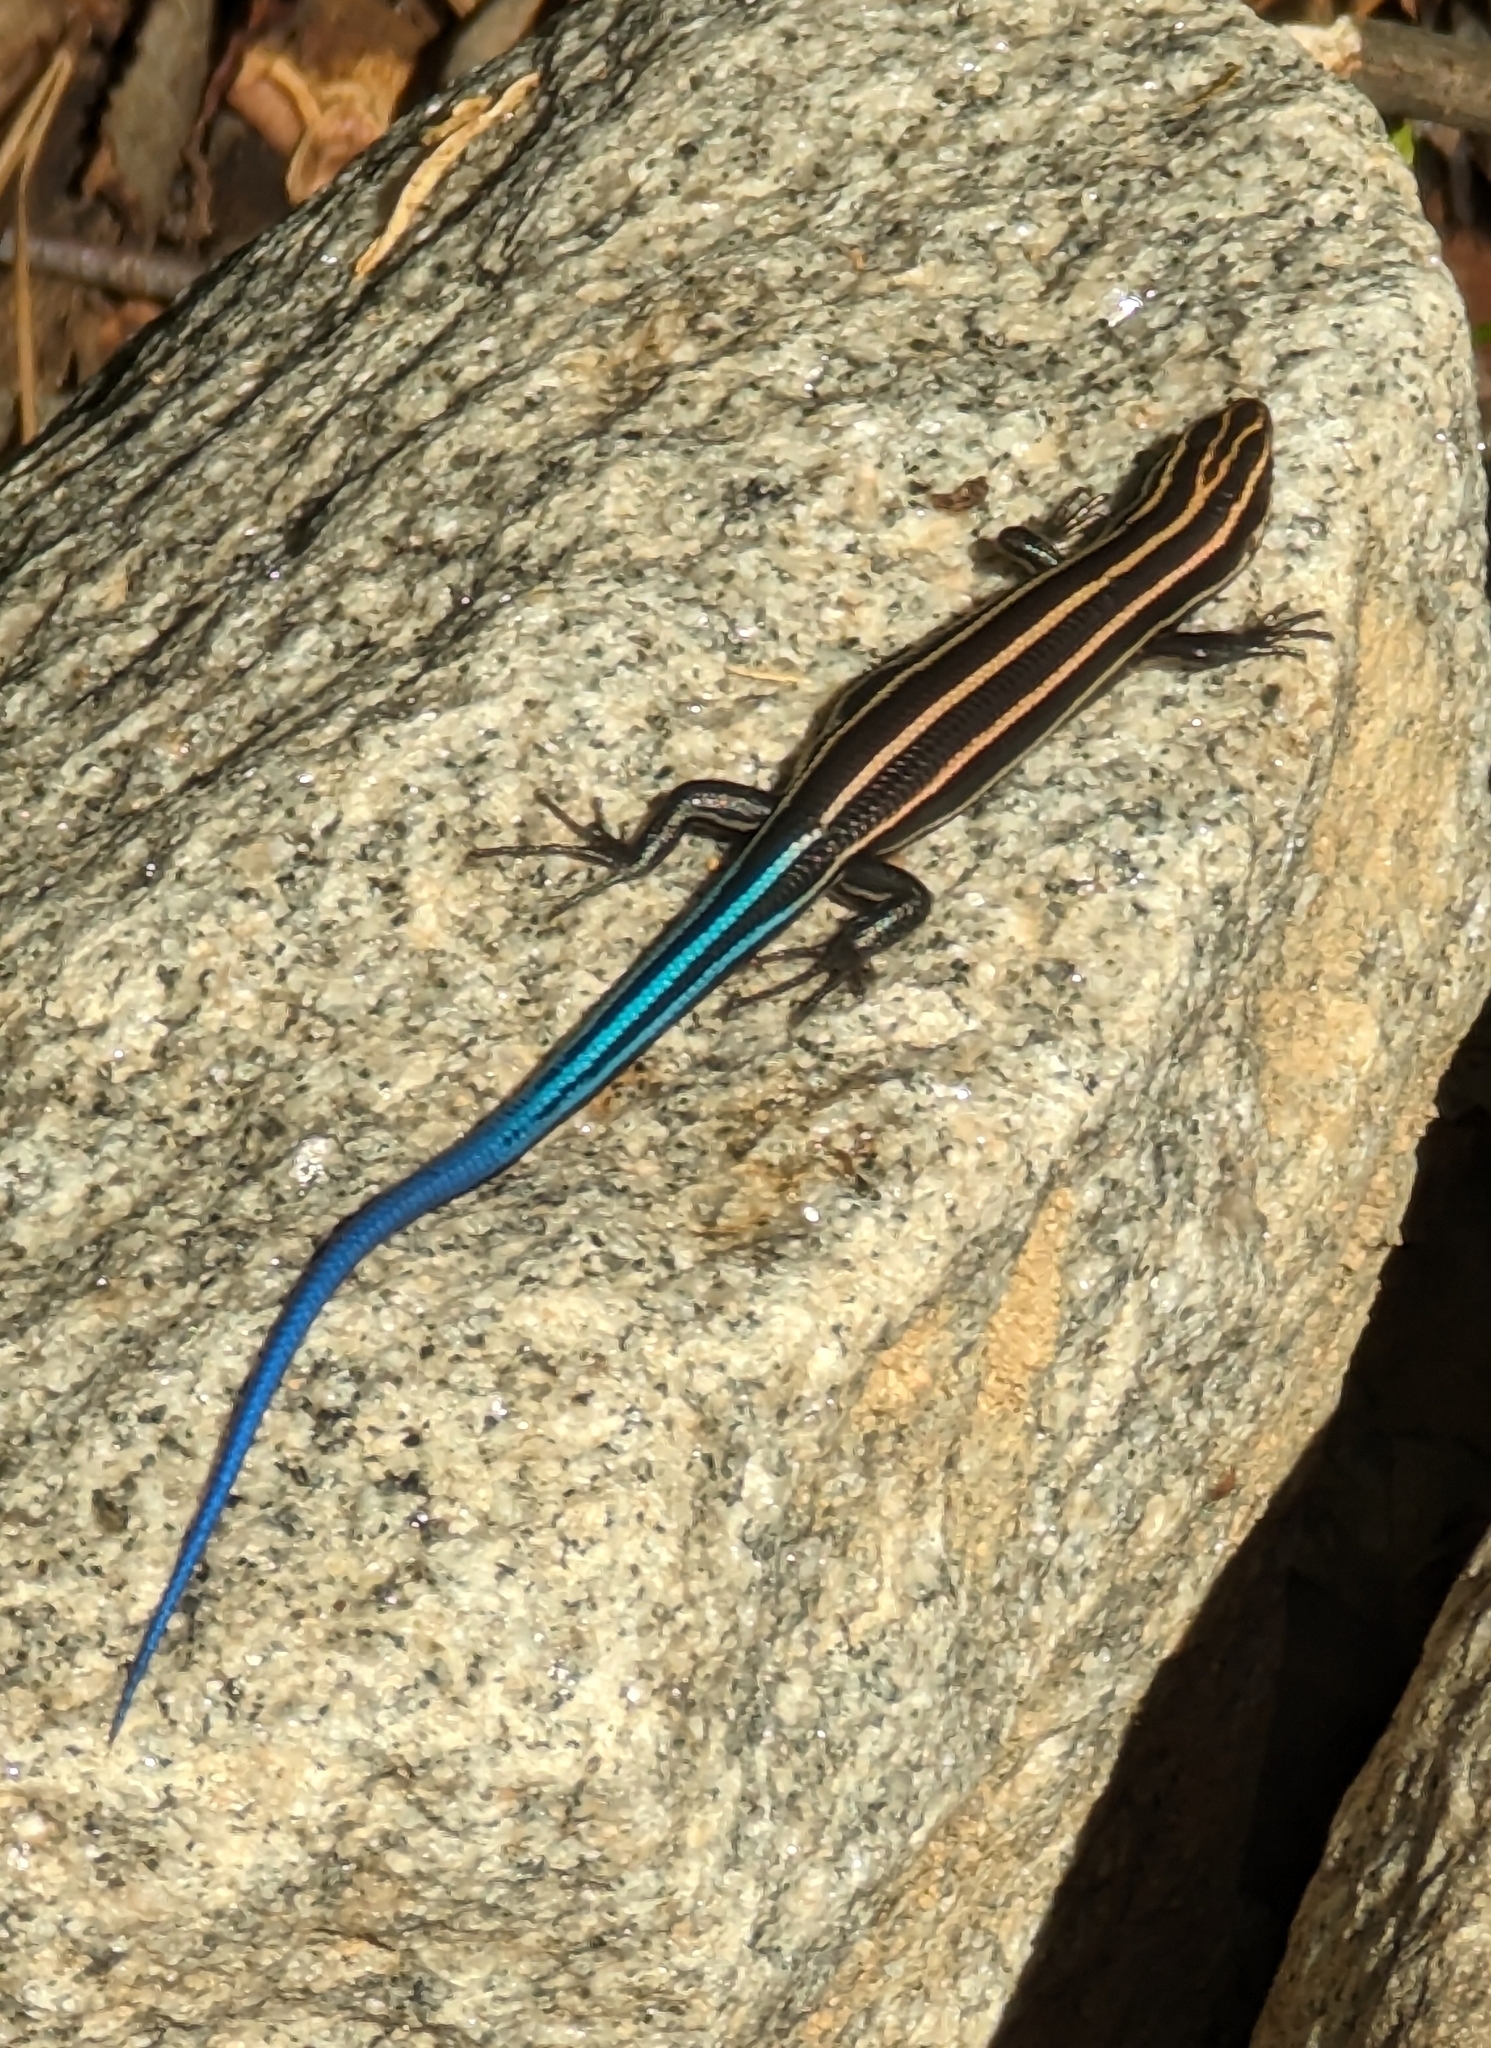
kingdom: Animalia
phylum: Chordata
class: Squamata
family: Scincidae
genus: Plestiodon
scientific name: Plestiodon fasciatus
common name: Five-lined skink
